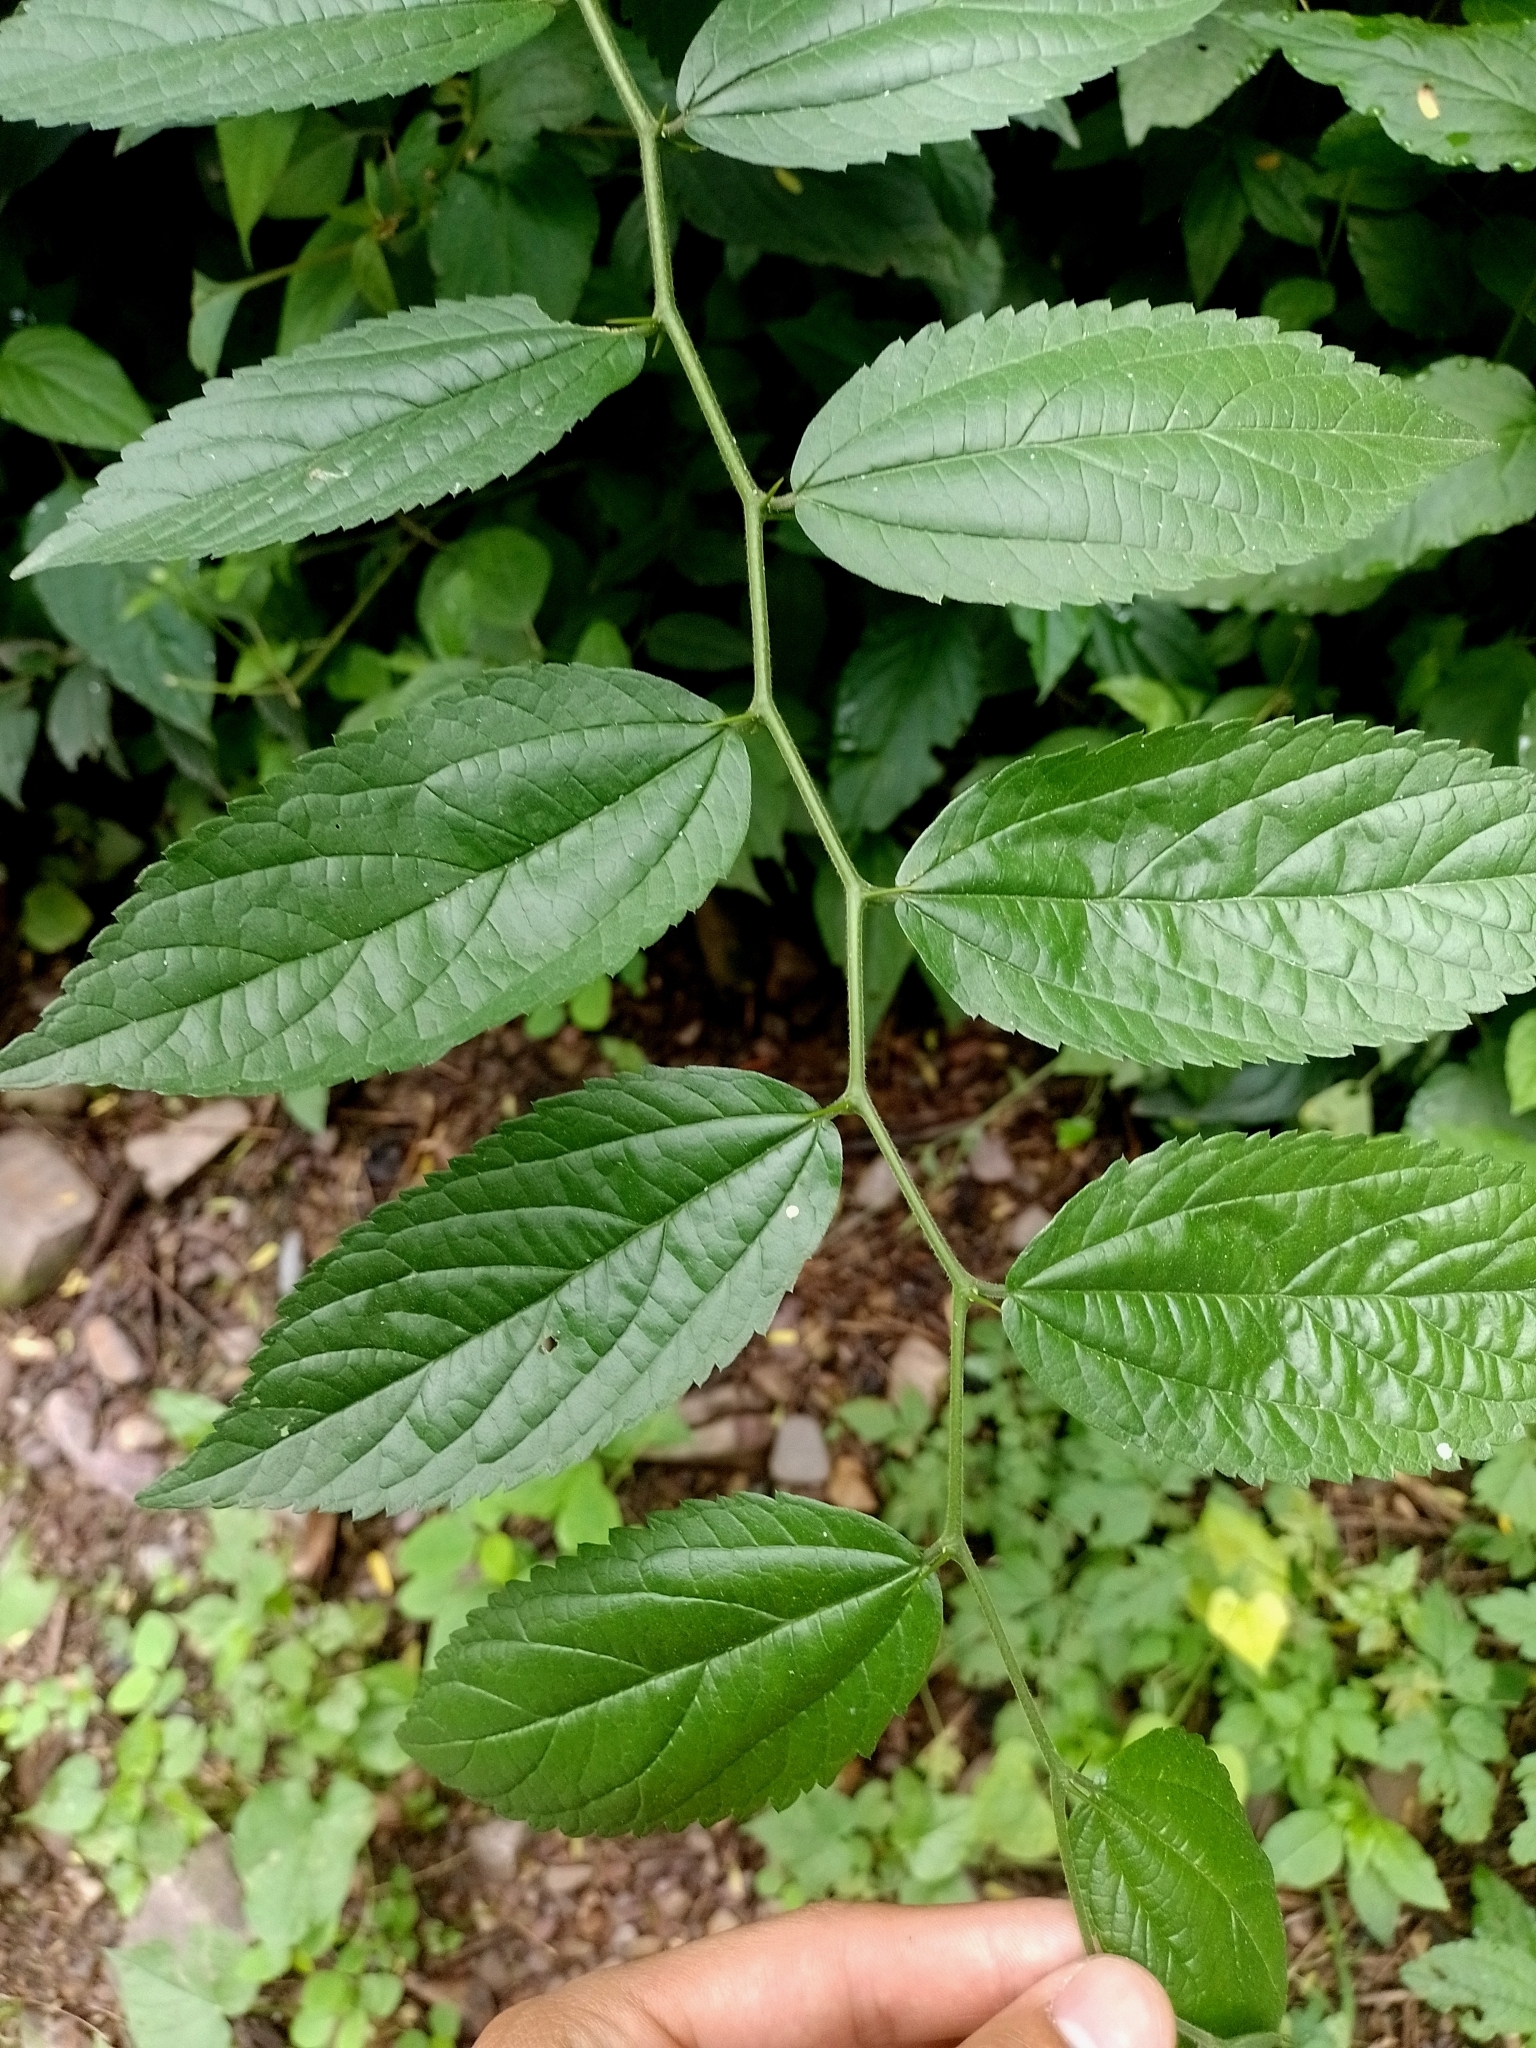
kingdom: Plantae
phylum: Tracheophyta
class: Magnoliopsida
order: Rosales
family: Cannabaceae
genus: Celtis
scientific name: Celtis tala
